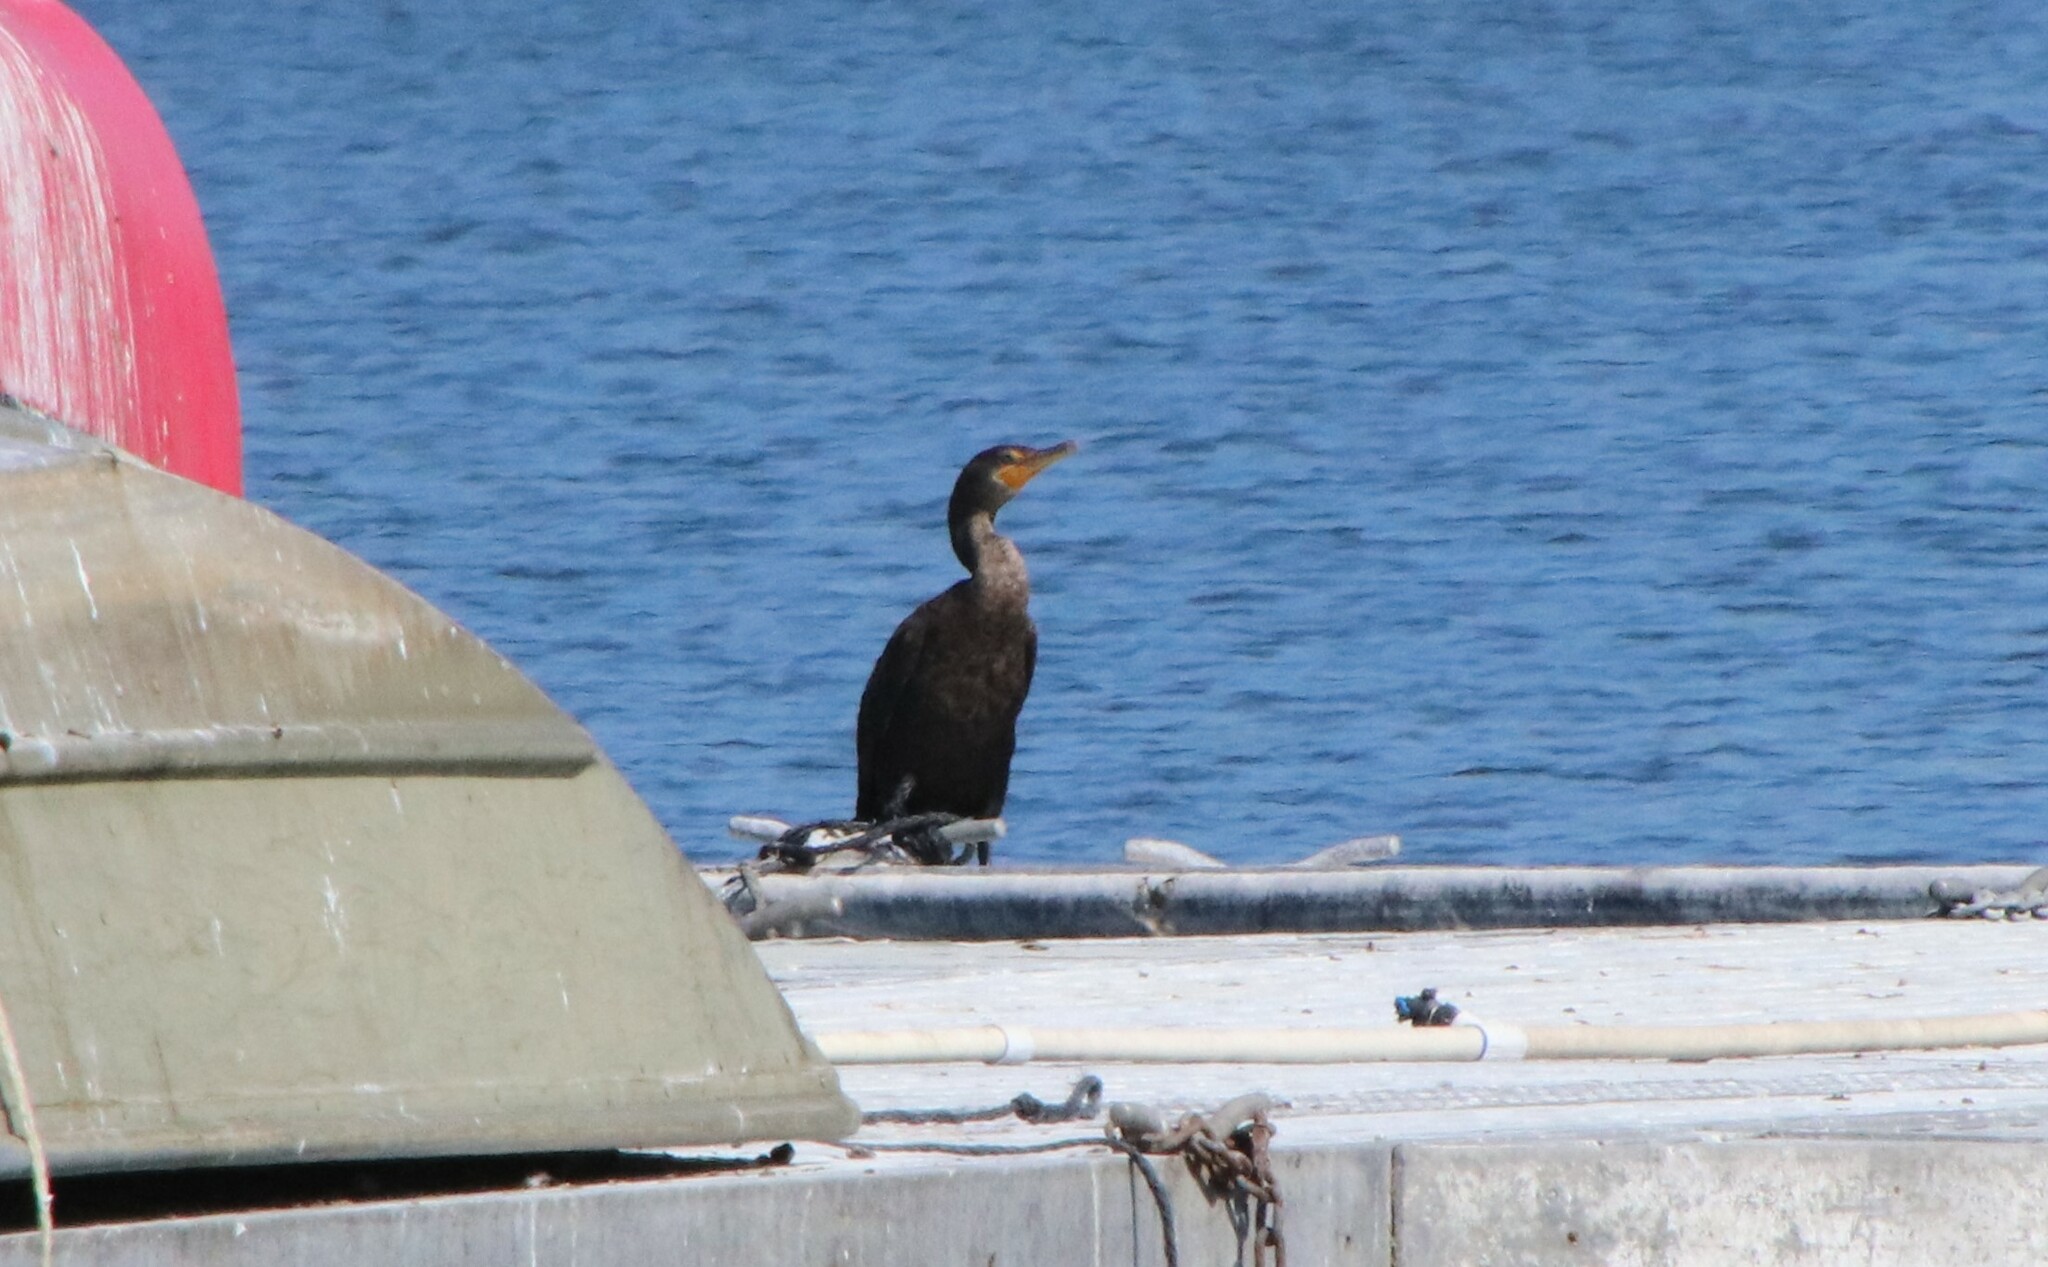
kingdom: Animalia
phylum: Chordata
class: Aves
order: Suliformes
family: Phalacrocoracidae
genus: Phalacrocorax
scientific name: Phalacrocorax auritus
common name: Double-crested cormorant
